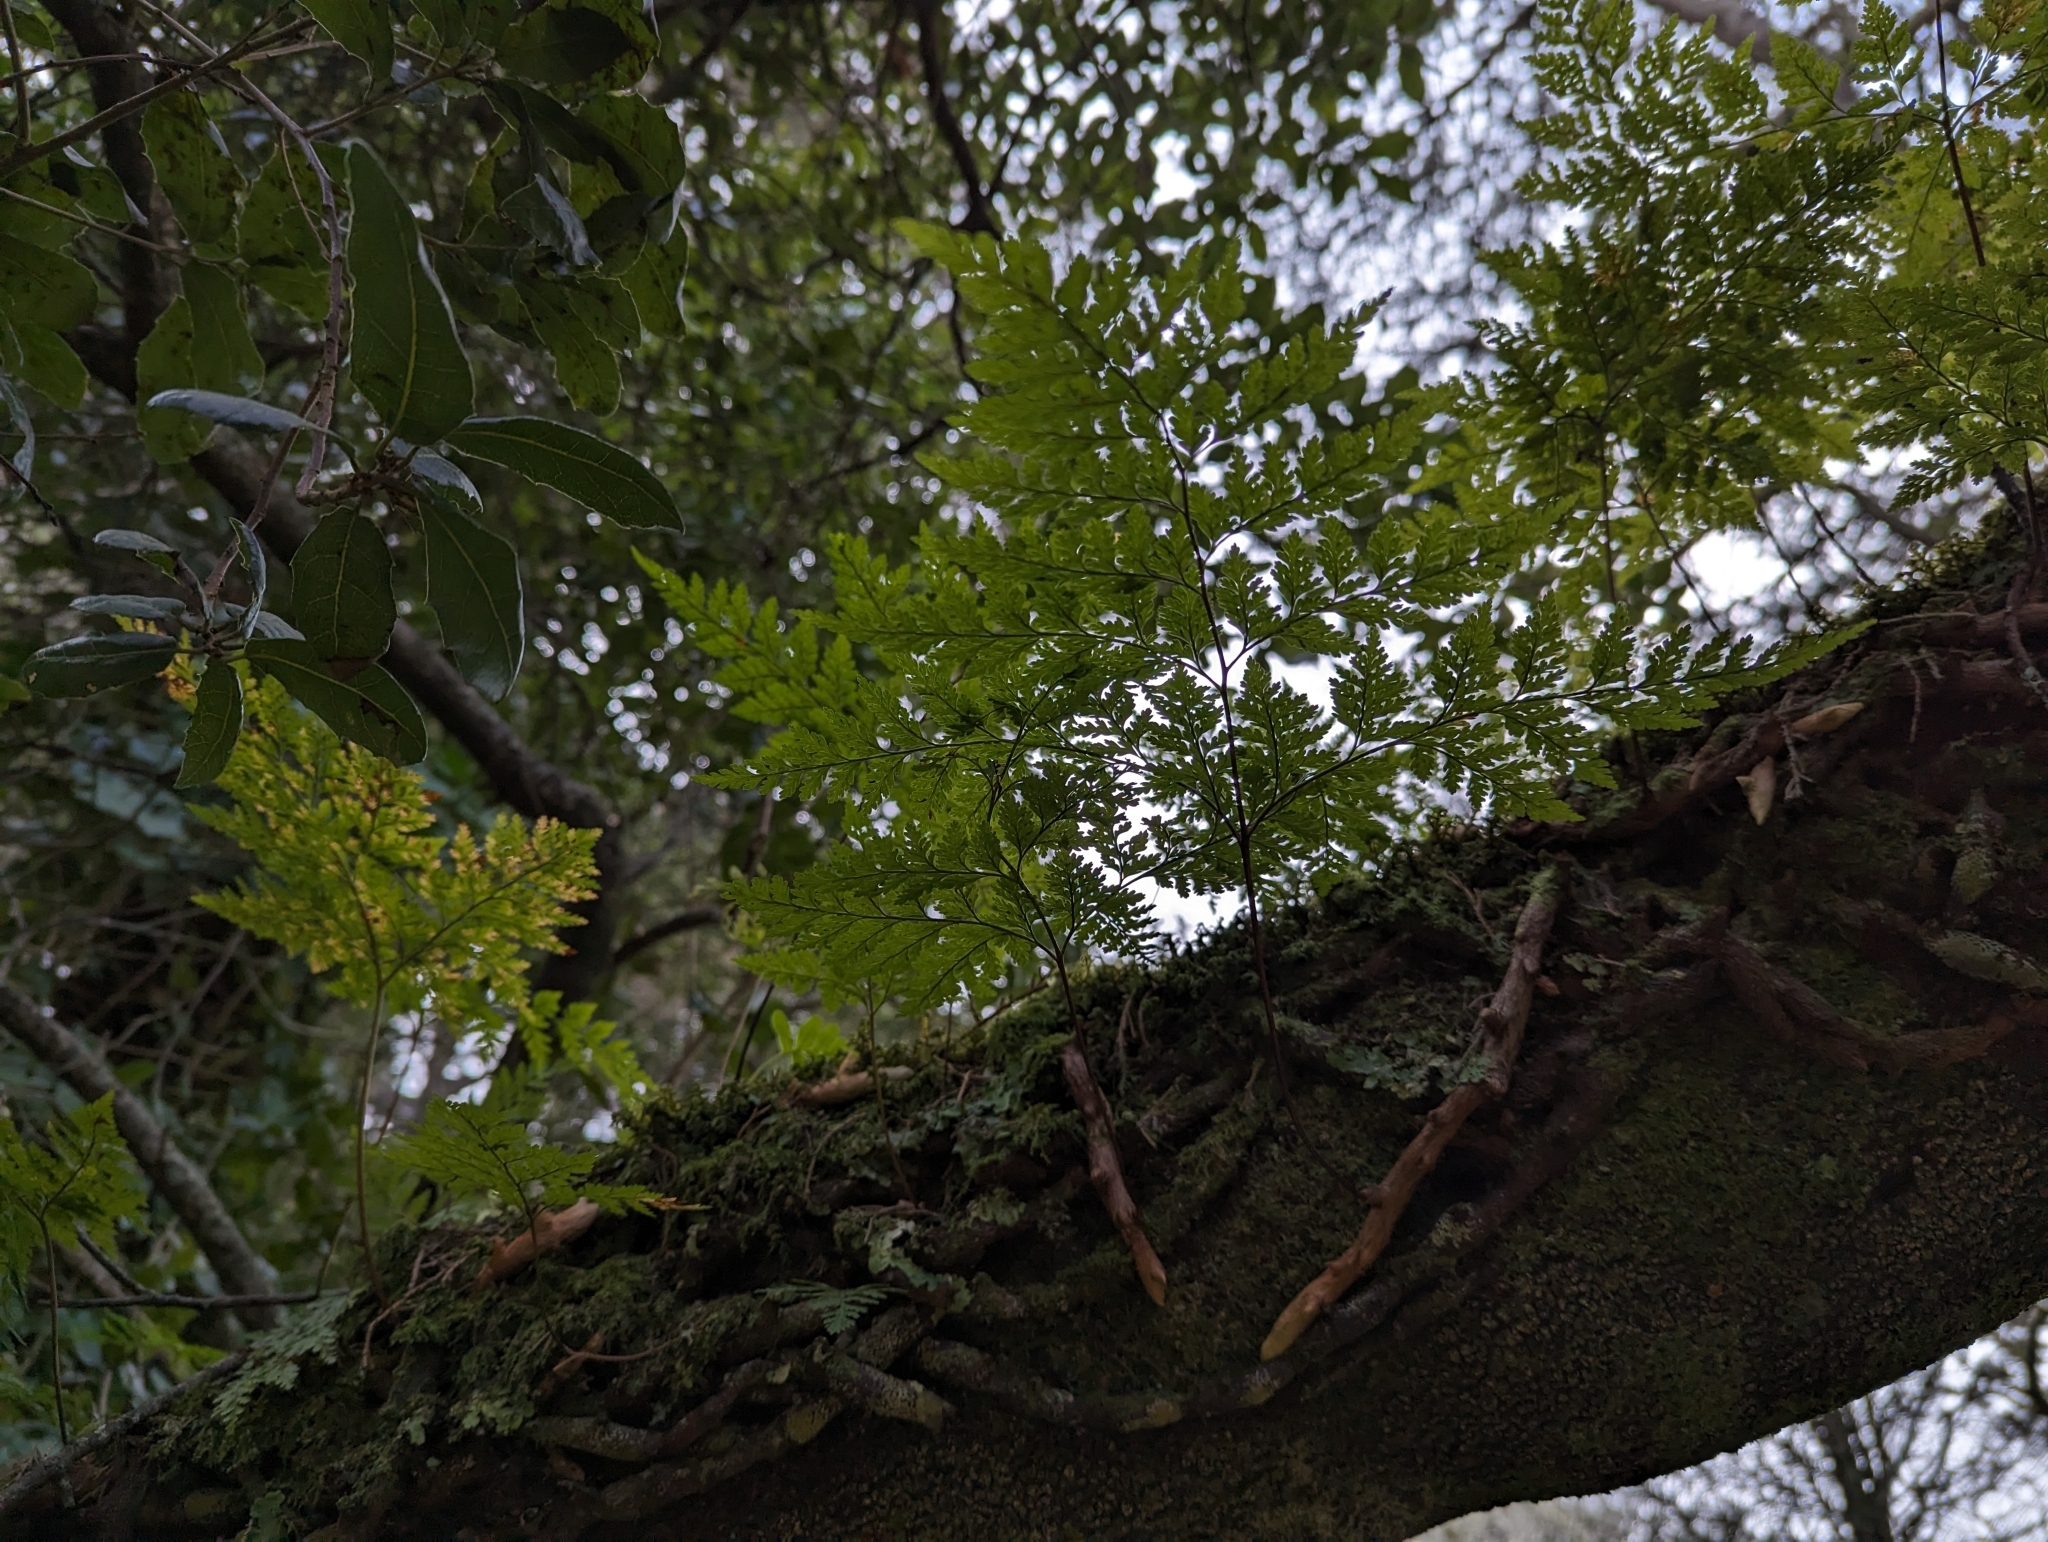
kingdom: Plantae
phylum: Tracheophyta
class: Polypodiopsida
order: Polypodiales
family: Davalliaceae
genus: Davallia
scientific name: Davallia canariensis
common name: Hare's-foot fern
